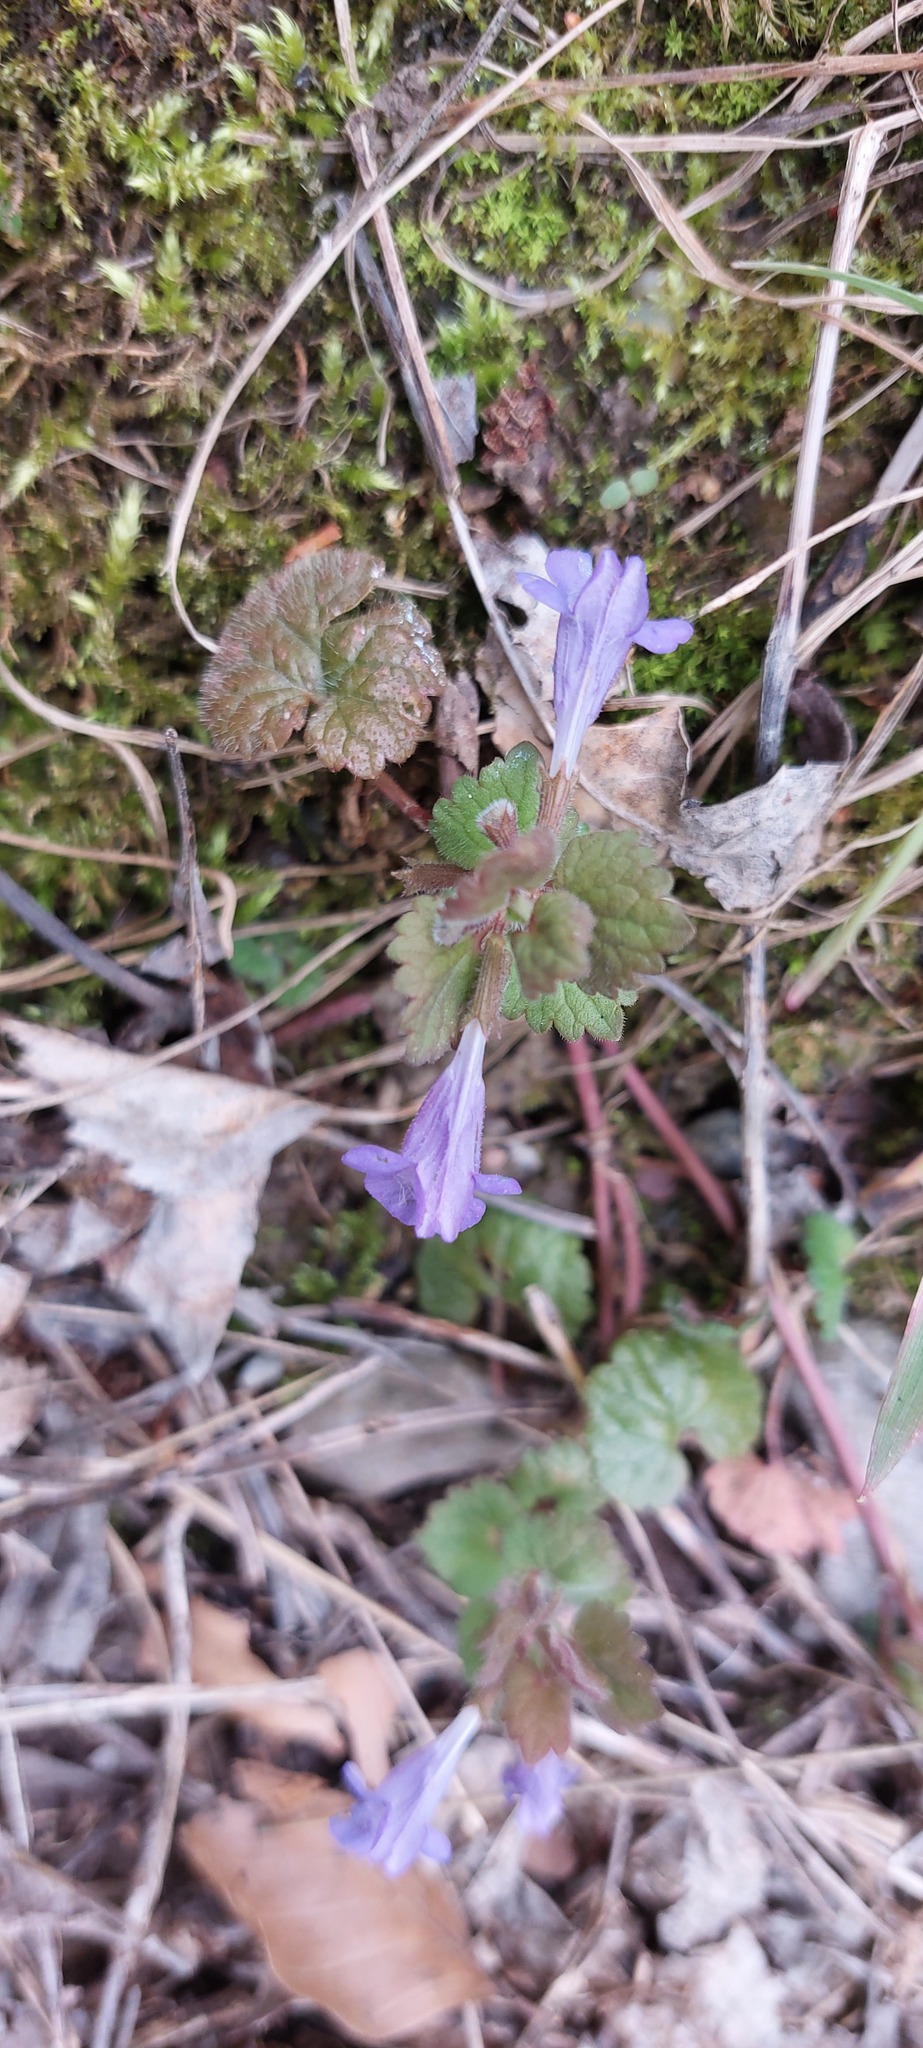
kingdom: Plantae
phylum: Tracheophyta
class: Magnoliopsida
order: Lamiales
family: Lamiaceae
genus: Glechoma
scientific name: Glechoma hederacea
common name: Ground ivy
